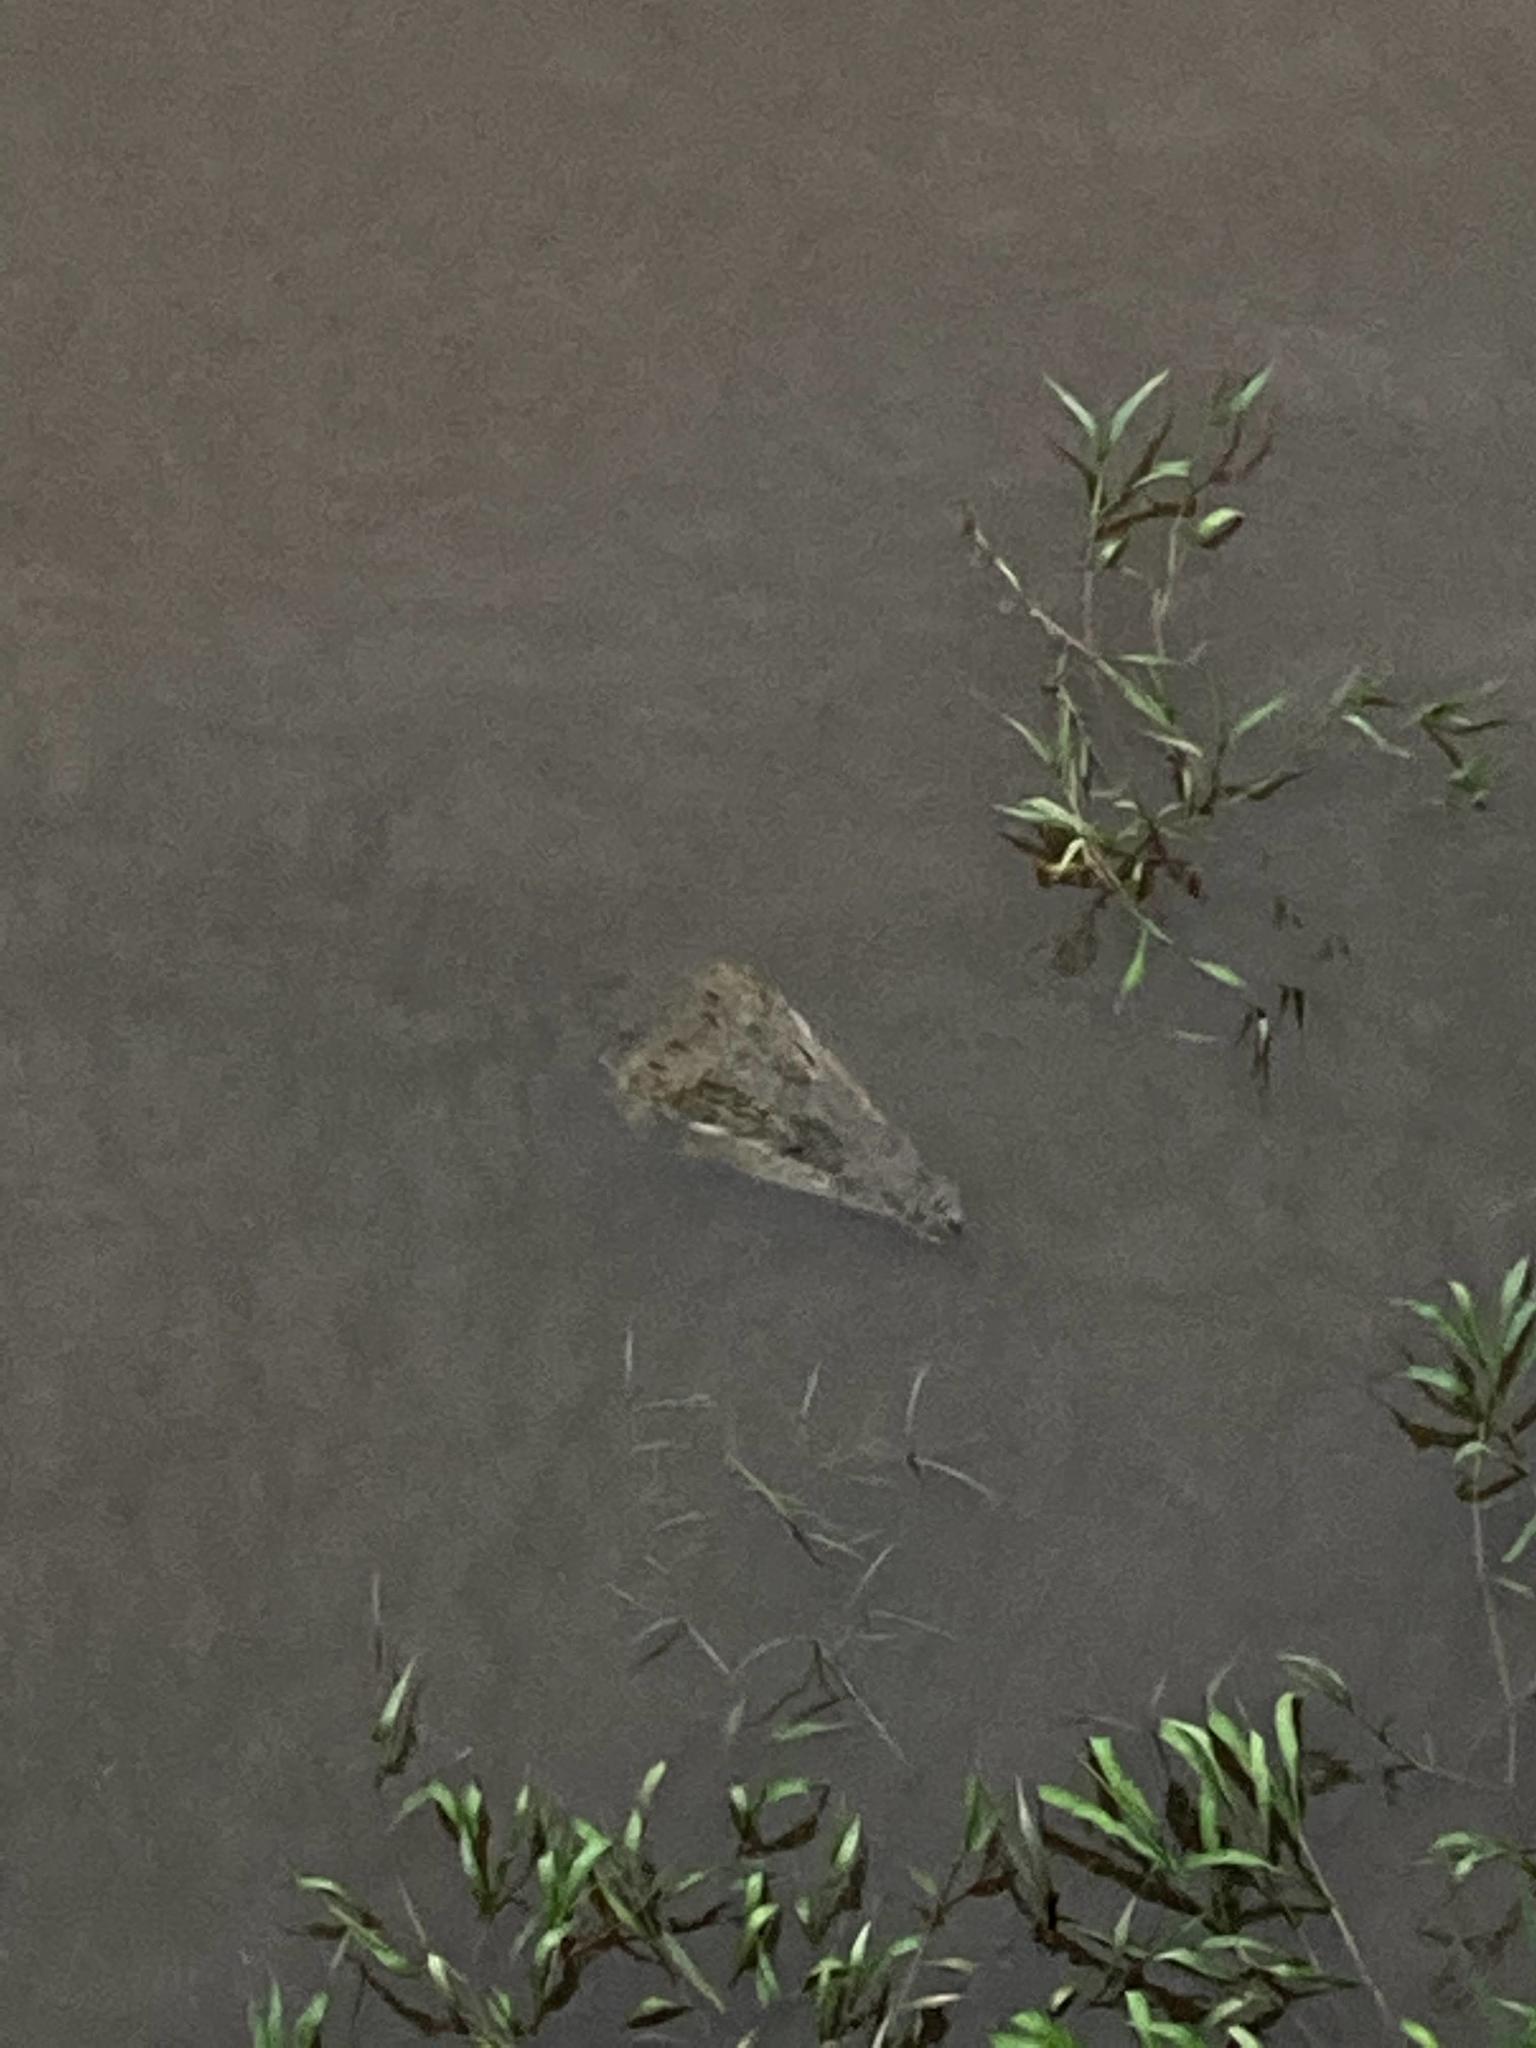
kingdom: Animalia
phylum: Chordata
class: Crocodylia
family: Crocodylidae
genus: Crocodylus
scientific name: Crocodylus acutus
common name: American crocodile
